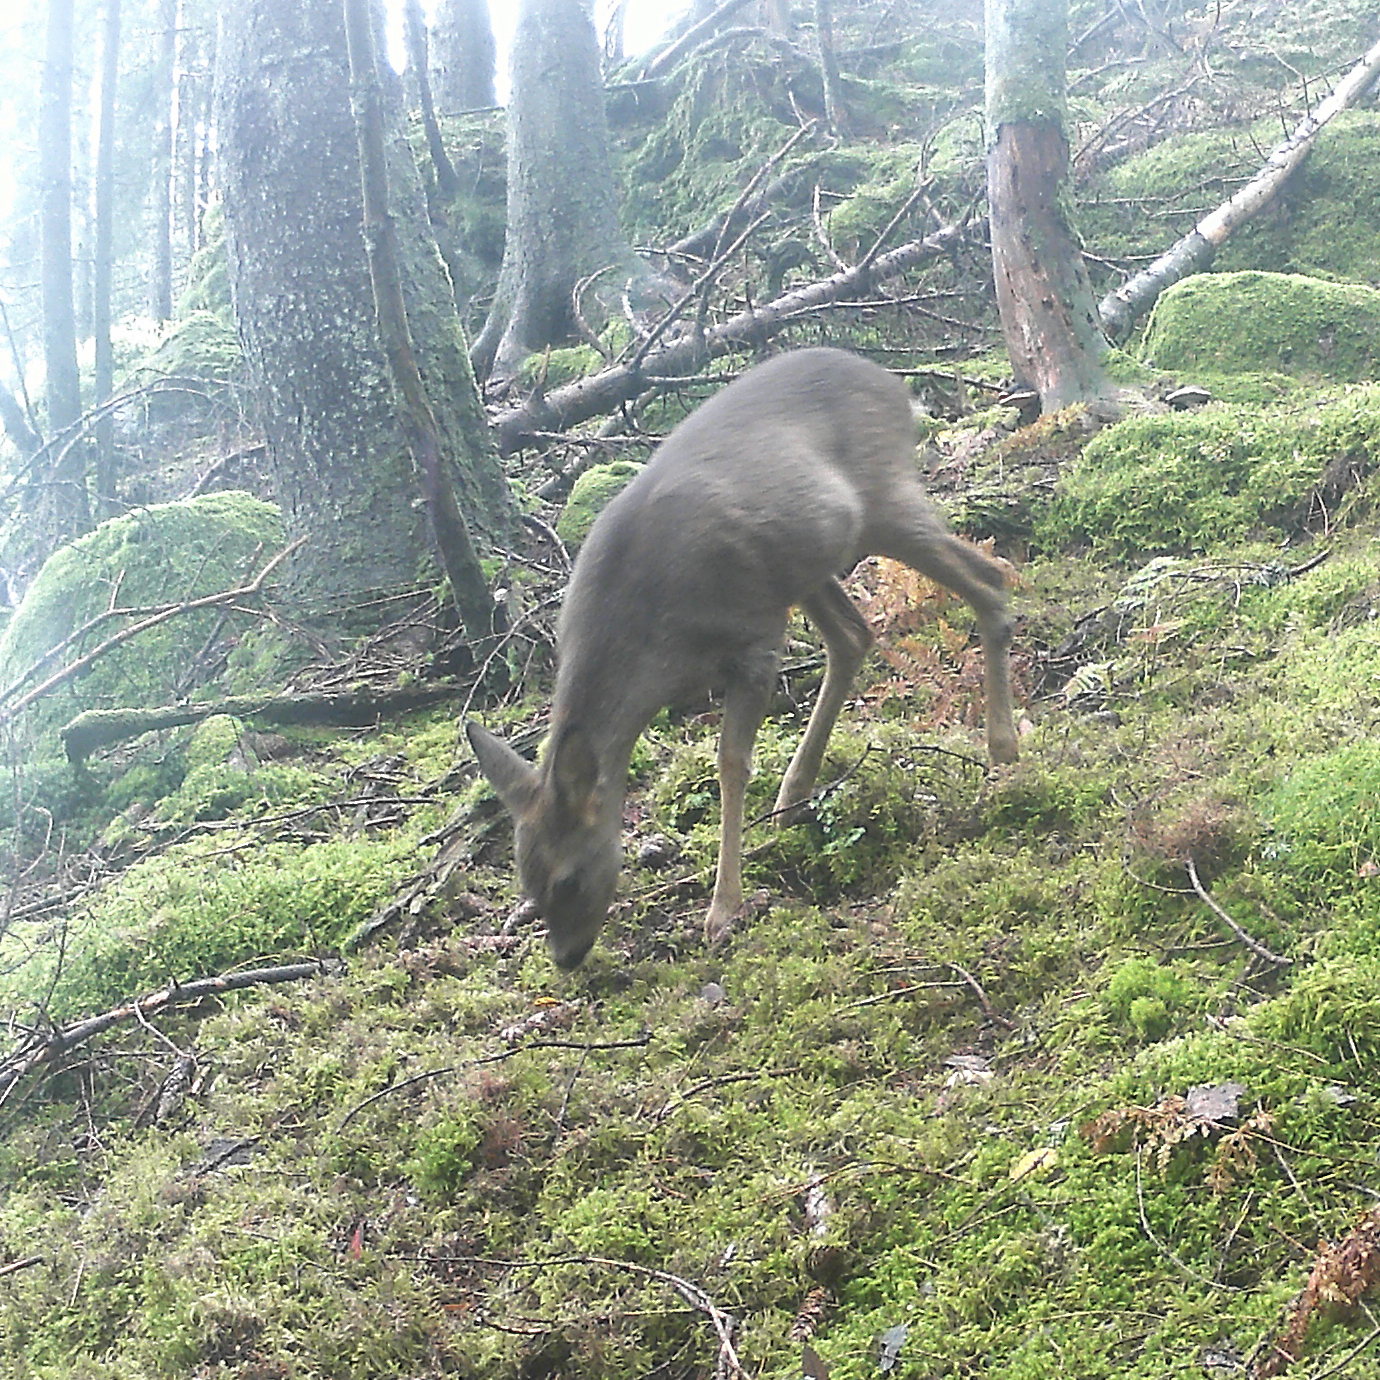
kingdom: Animalia
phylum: Chordata
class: Mammalia
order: Artiodactyla
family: Cervidae
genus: Capreolus
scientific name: Capreolus capreolus
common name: Western roe deer
